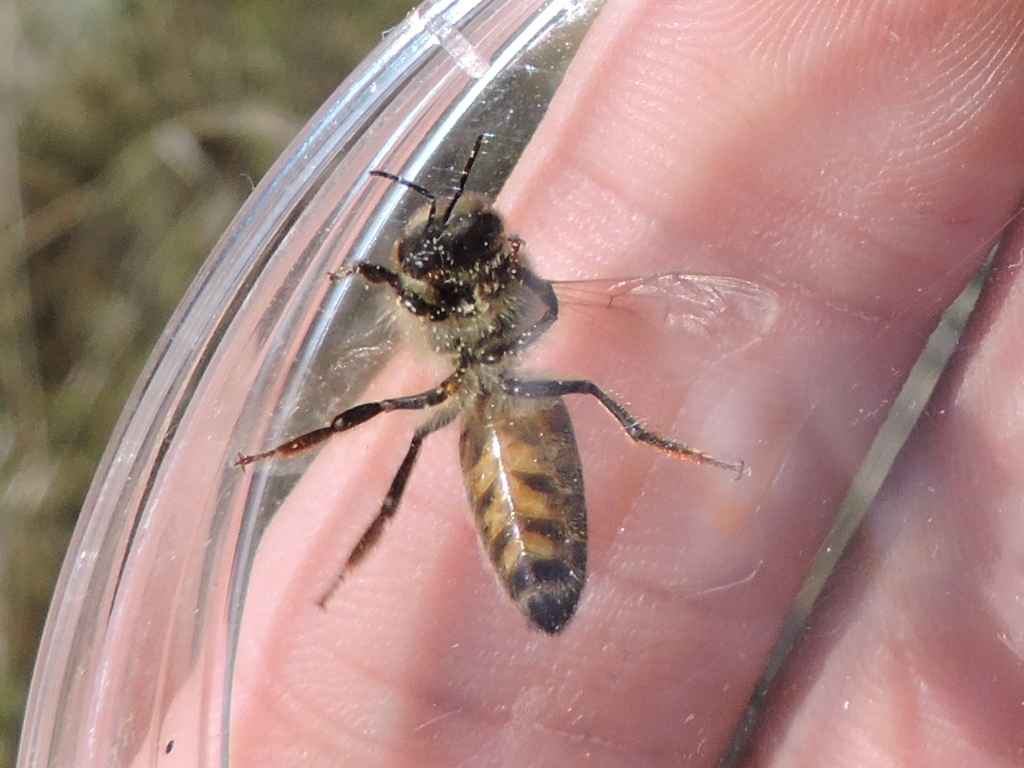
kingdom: Animalia
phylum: Arthropoda
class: Insecta
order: Hymenoptera
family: Apidae
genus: Apis
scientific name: Apis mellifera
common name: Honey bee
